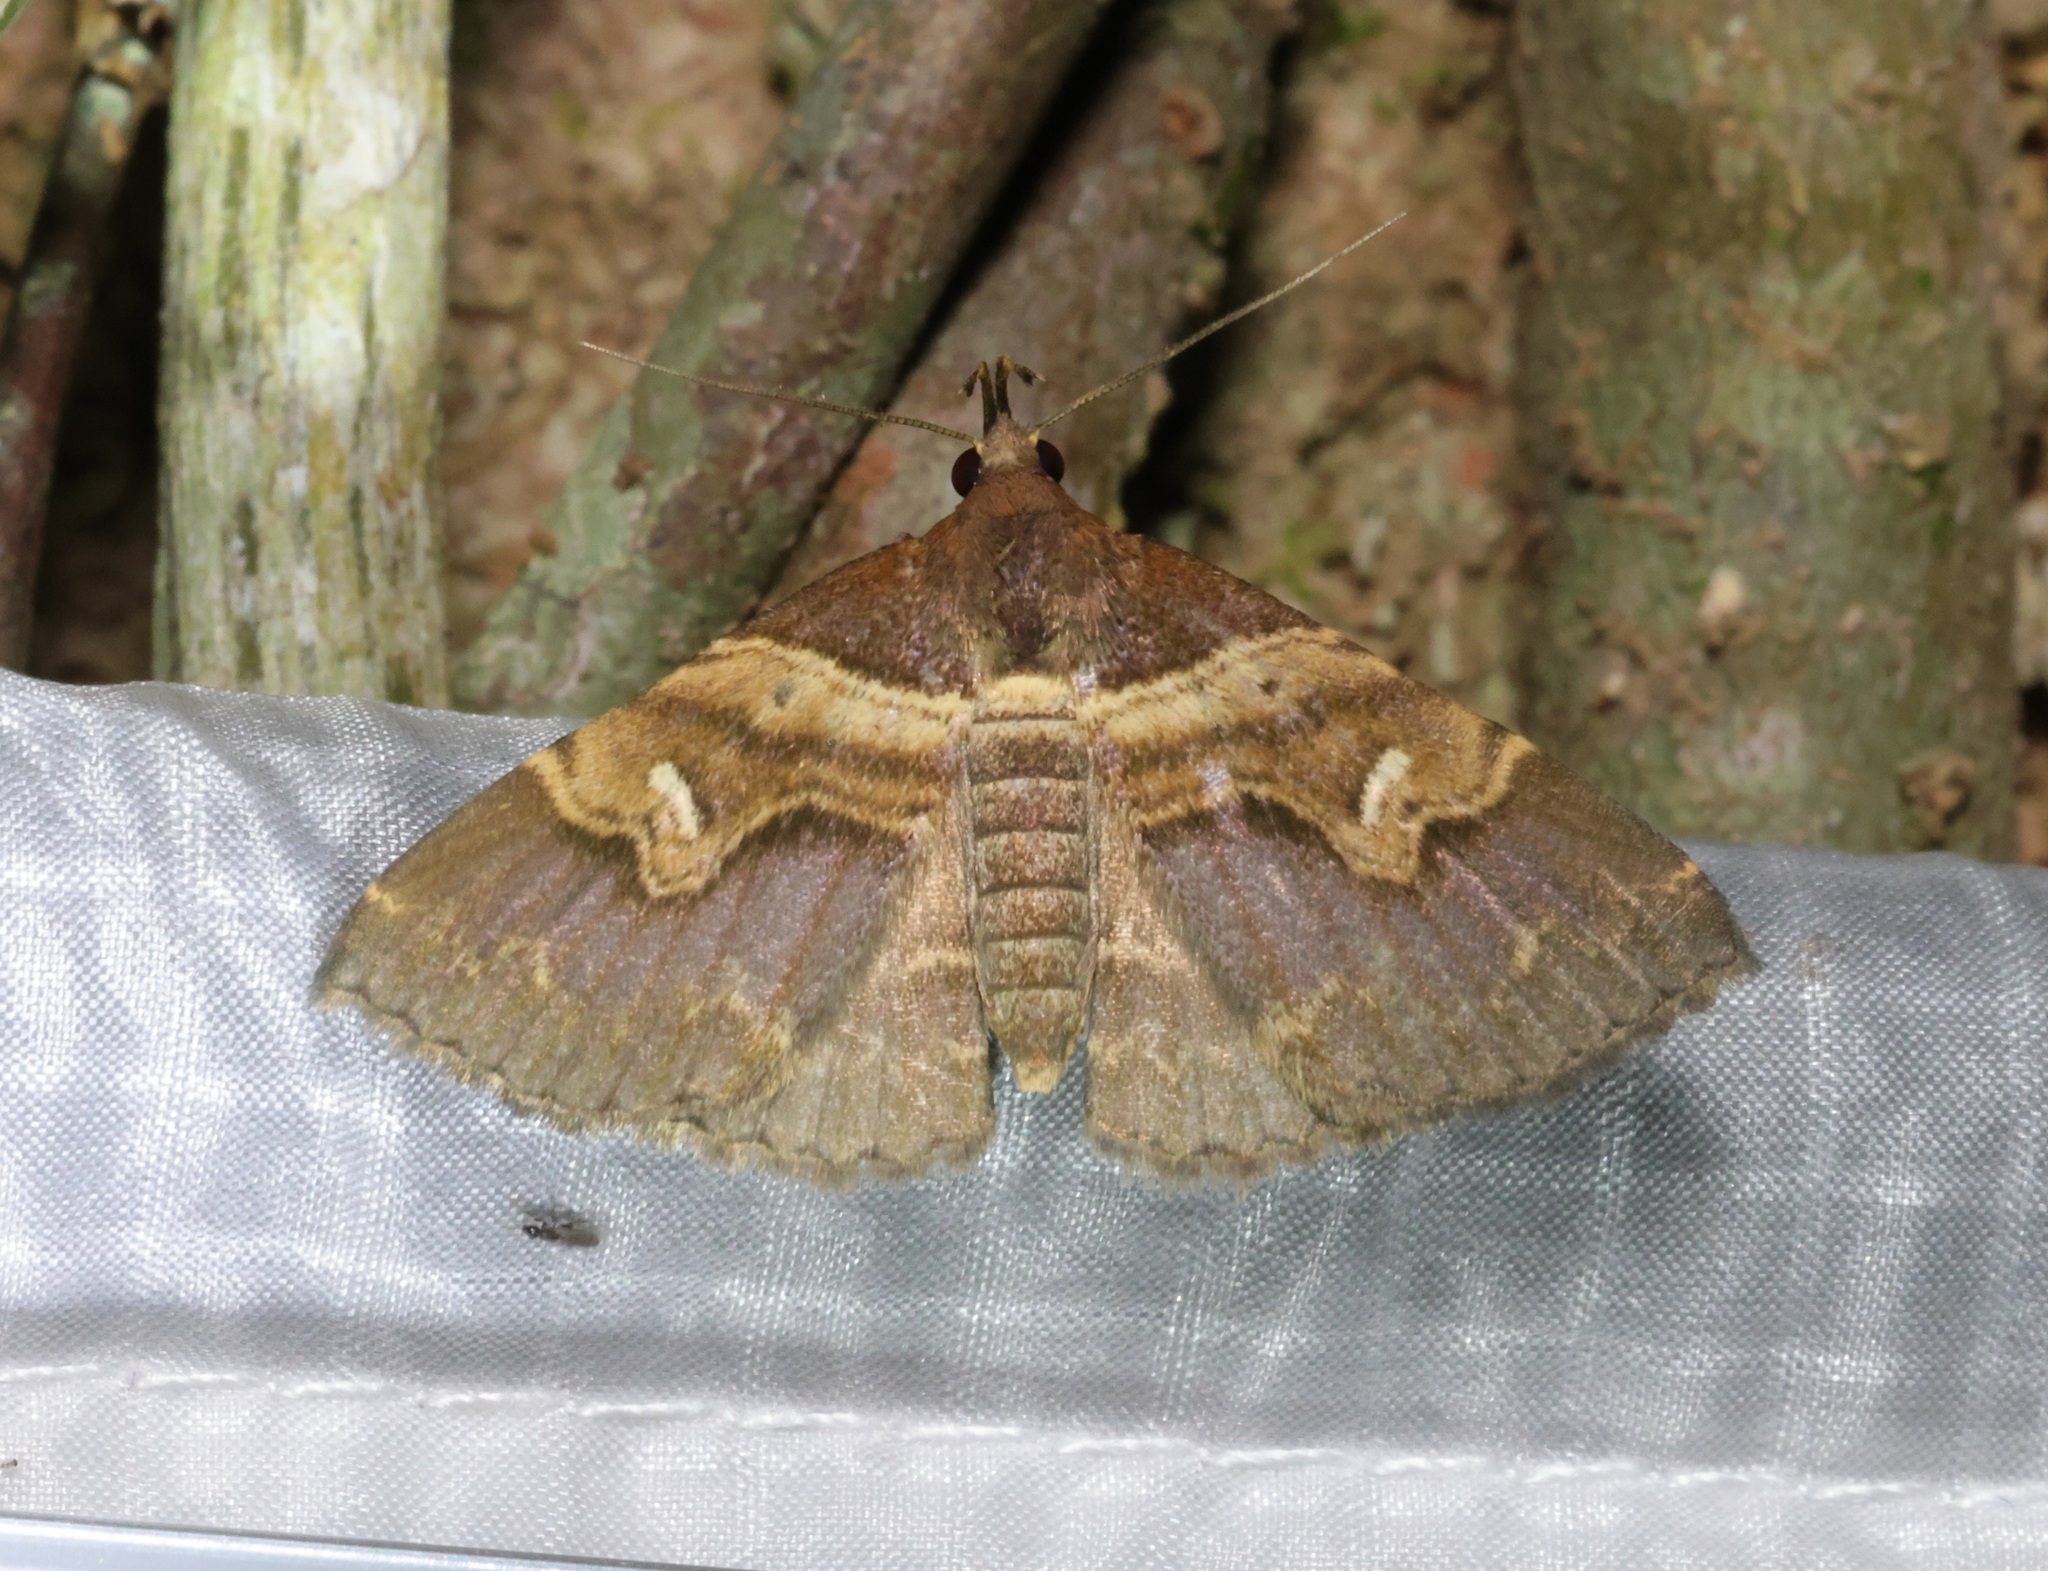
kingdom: Animalia
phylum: Arthropoda
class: Insecta
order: Lepidoptera
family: Erebidae
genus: Bertula
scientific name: Bertula retracta
